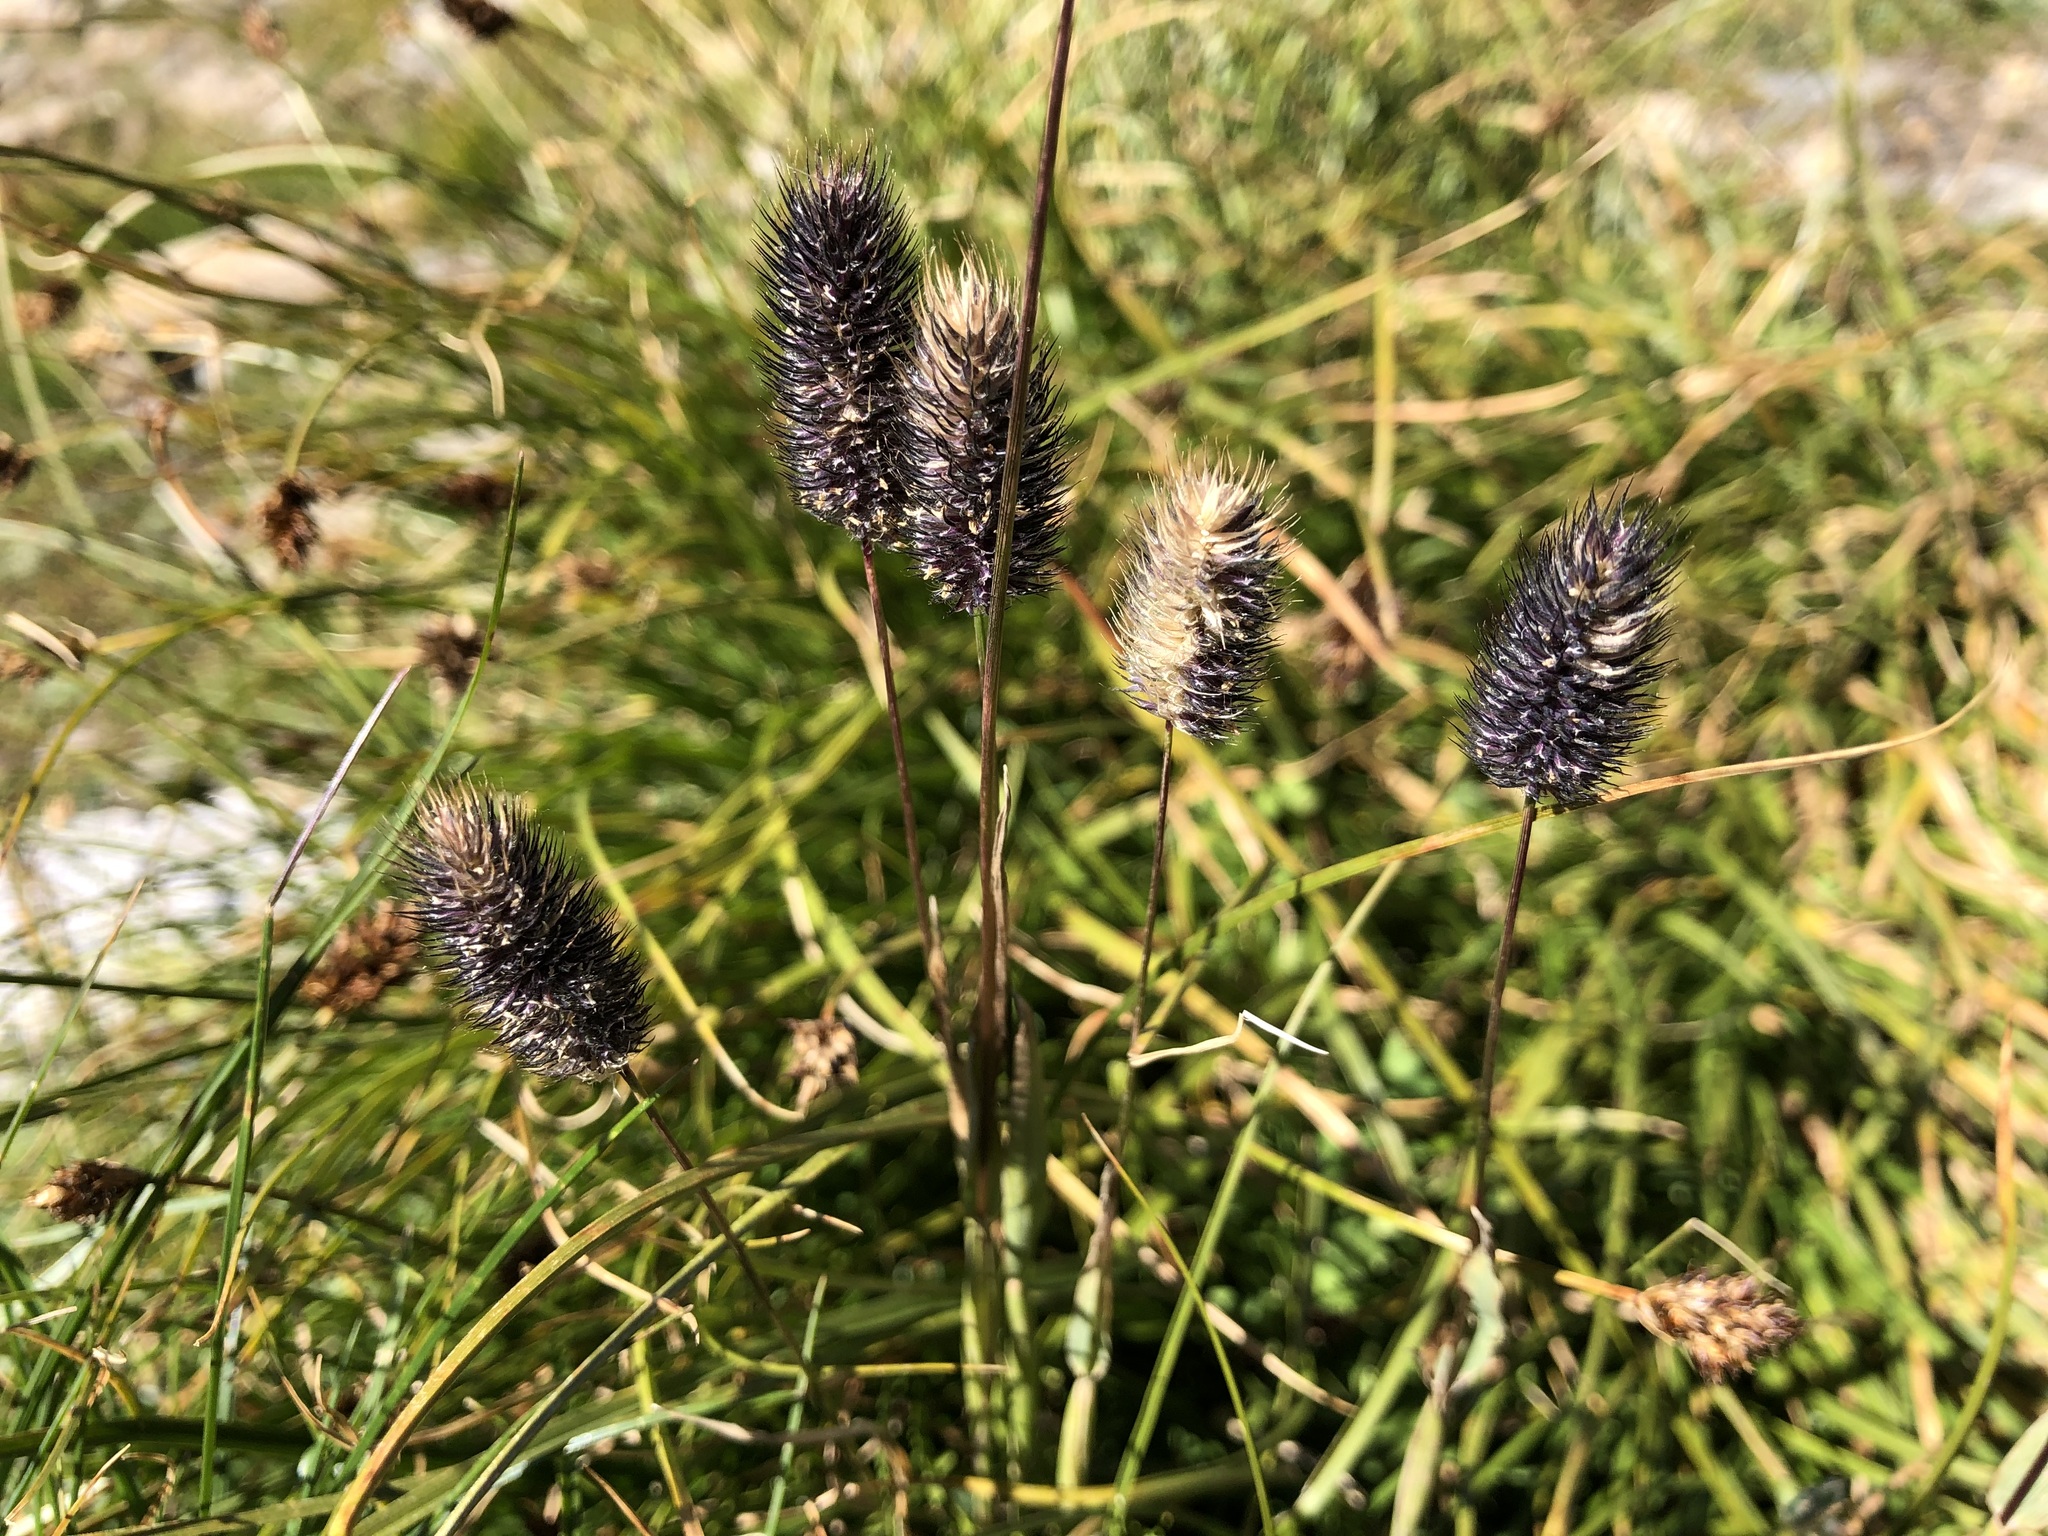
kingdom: Plantae
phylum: Tracheophyta
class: Liliopsida
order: Poales
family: Poaceae
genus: Phleum
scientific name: Phleum alpinum
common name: Alpine cat's-tail
